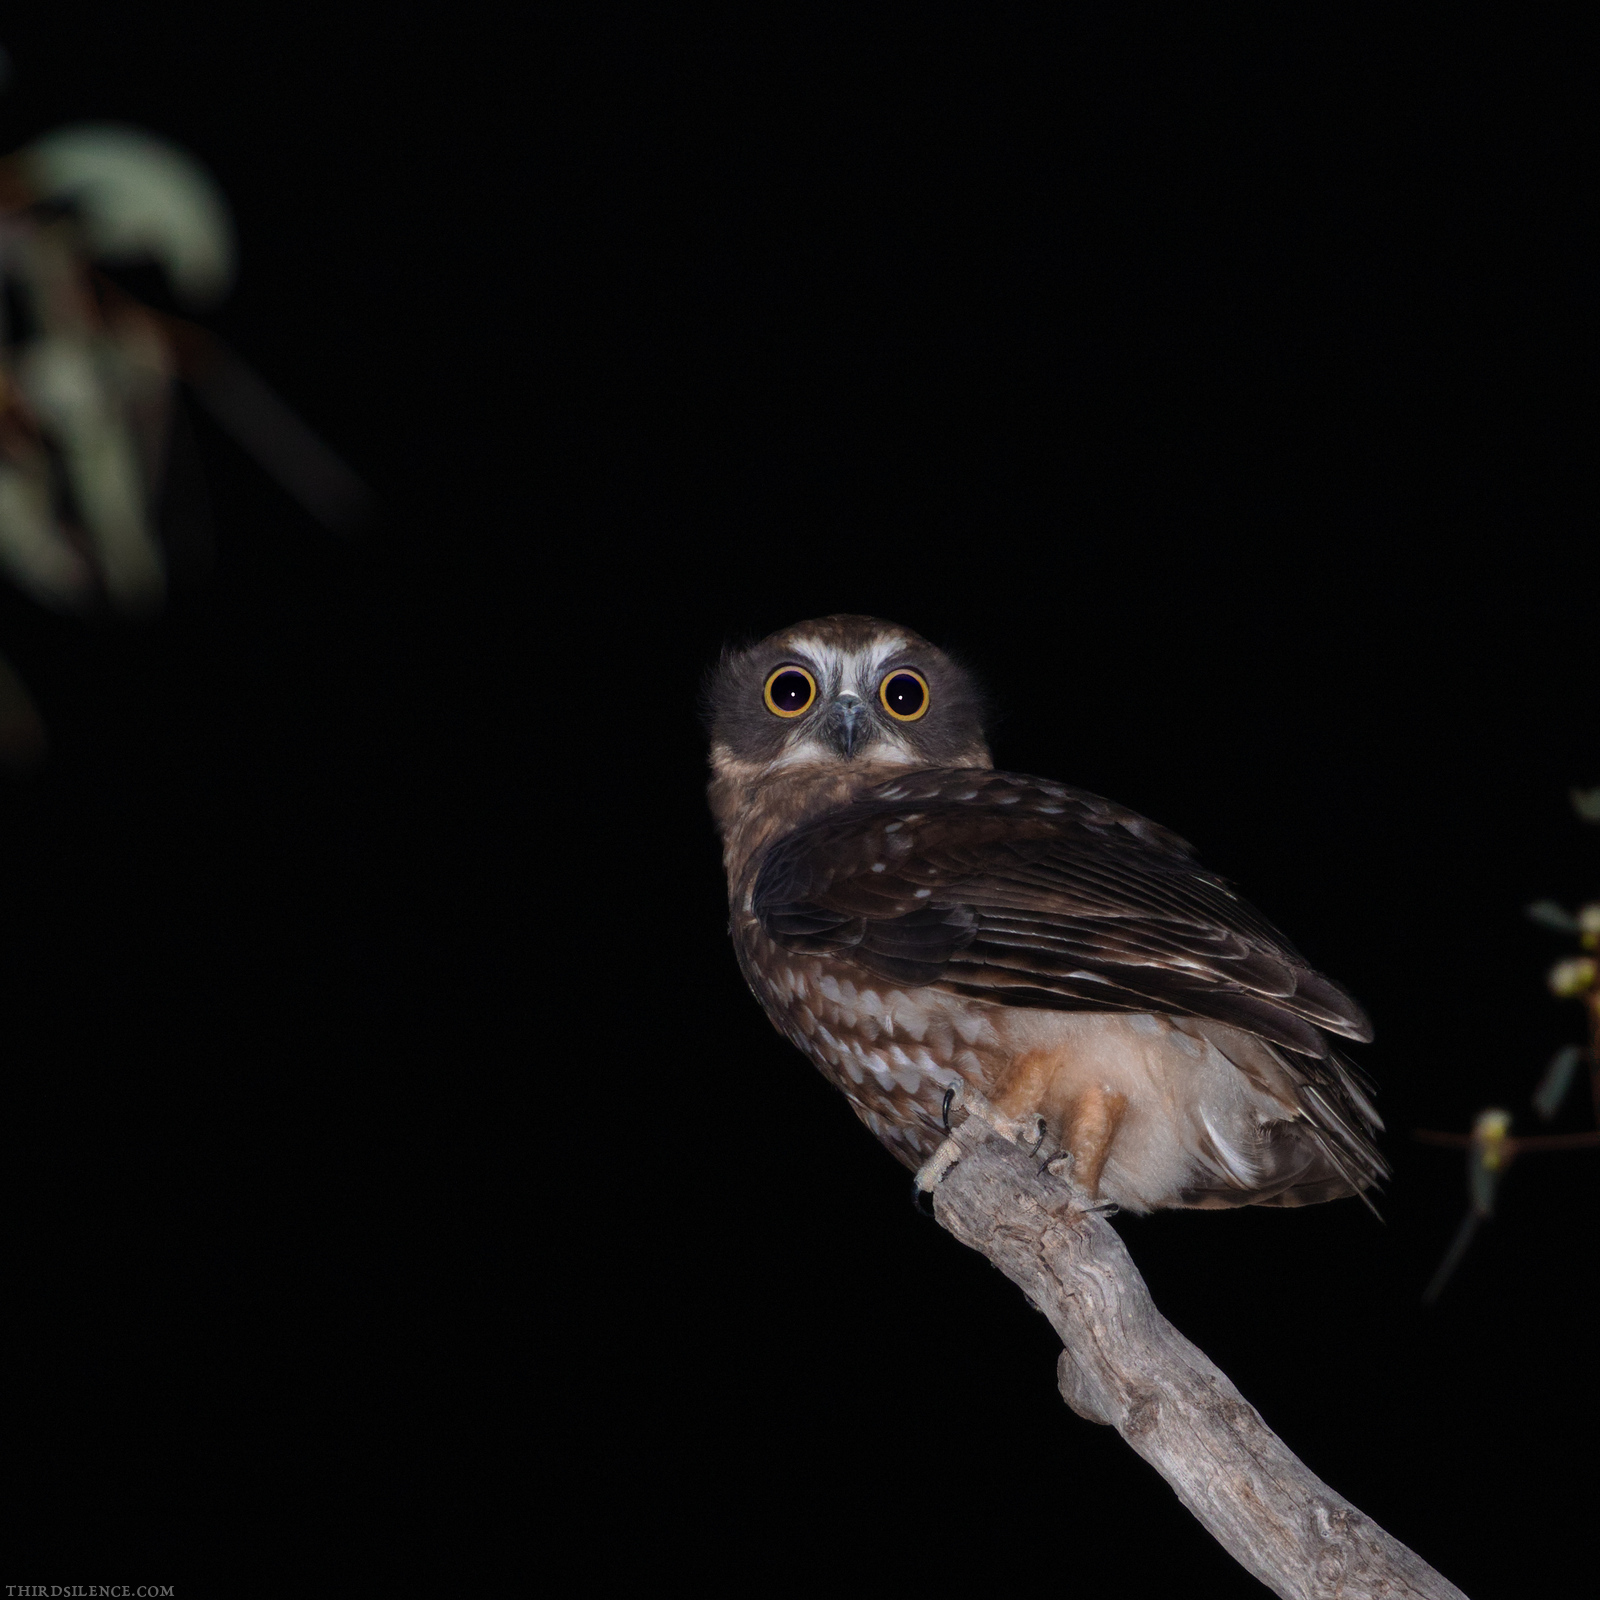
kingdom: Animalia
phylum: Chordata
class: Aves
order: Strigiformes
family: Strigidae
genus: Ninox
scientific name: Ninox boobook
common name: Southern boobook
